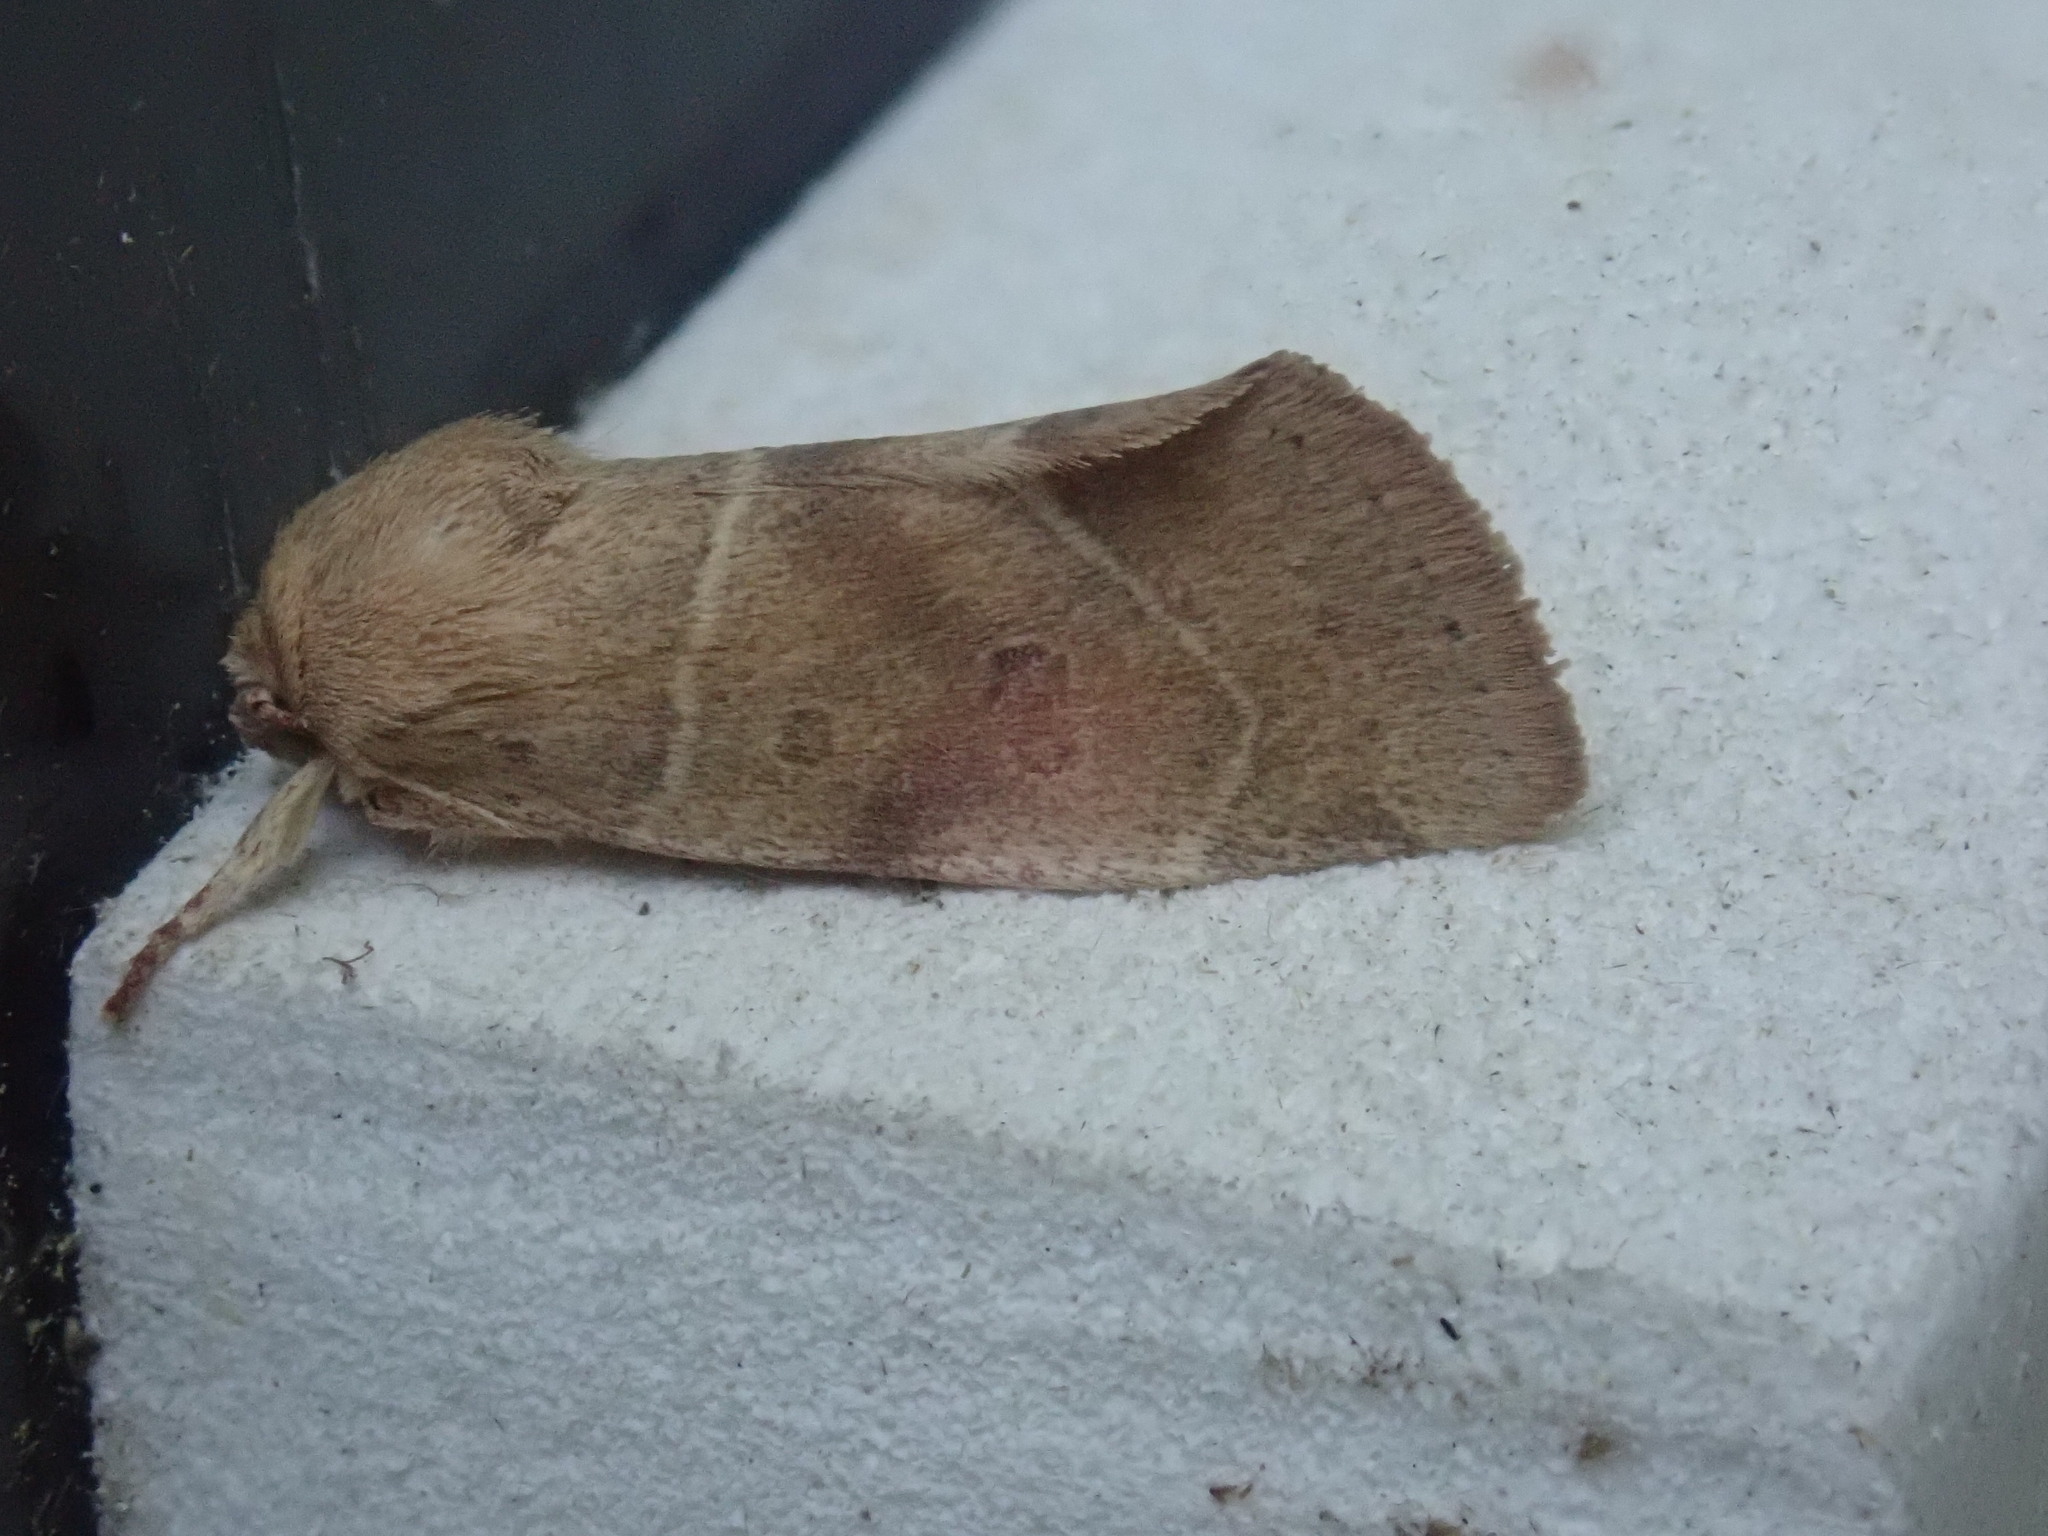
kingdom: Animalia
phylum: Arthropoda
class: Insecta
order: Lepidoptera
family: Noctuidae
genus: Cosmia
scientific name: Cosmia calami
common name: American dun-bar moth
